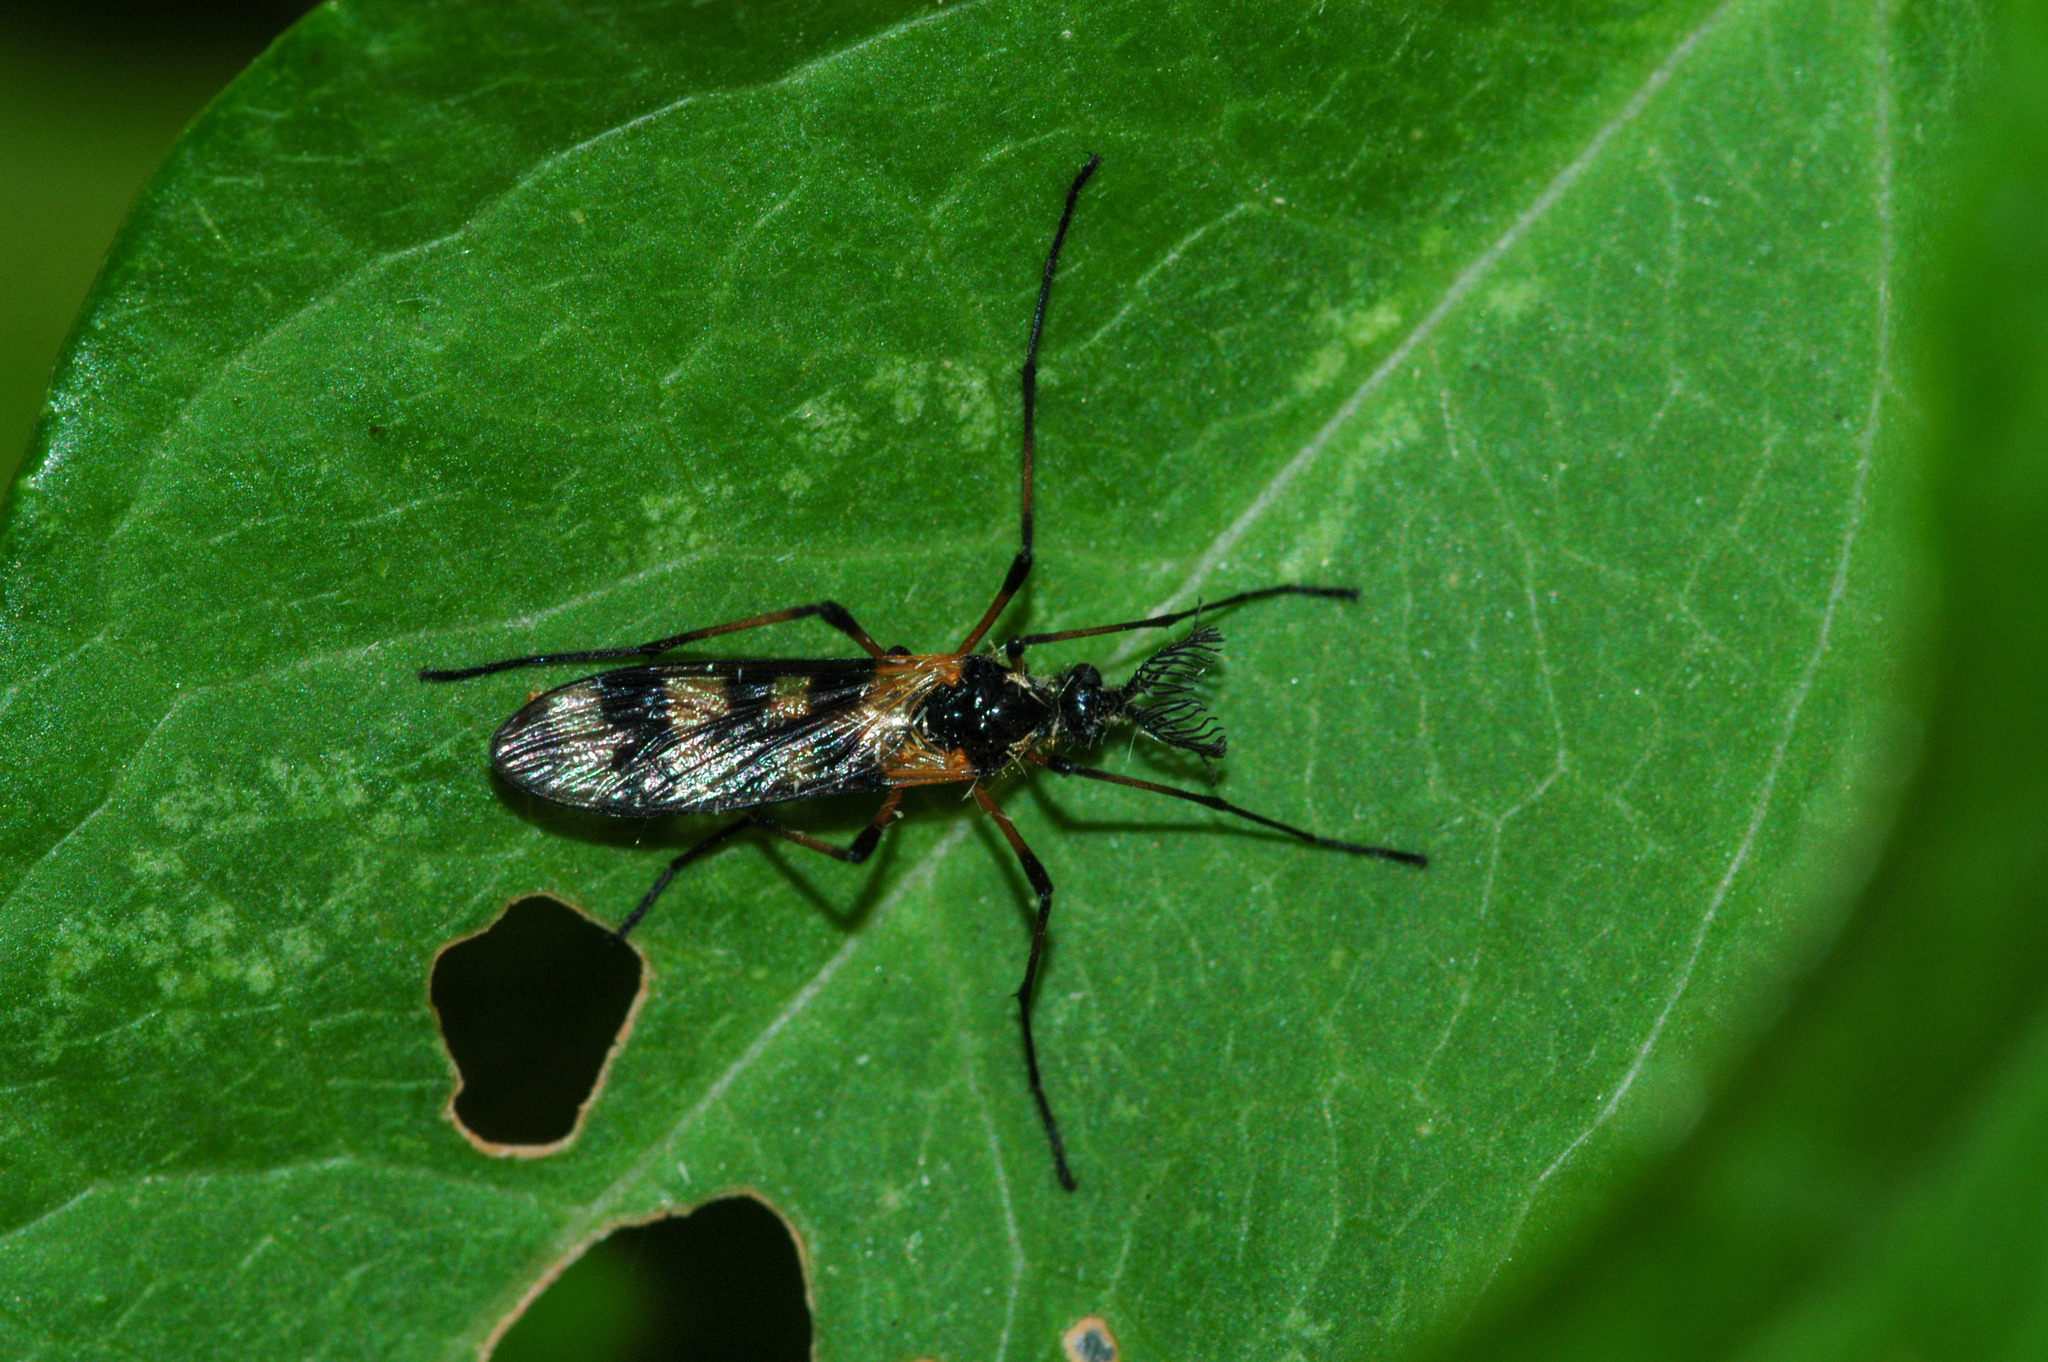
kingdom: Animalia
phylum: Arthropoda
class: Insecta
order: Diptera
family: Limoniidae
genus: Gynoplistia
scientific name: Gynoplistia
